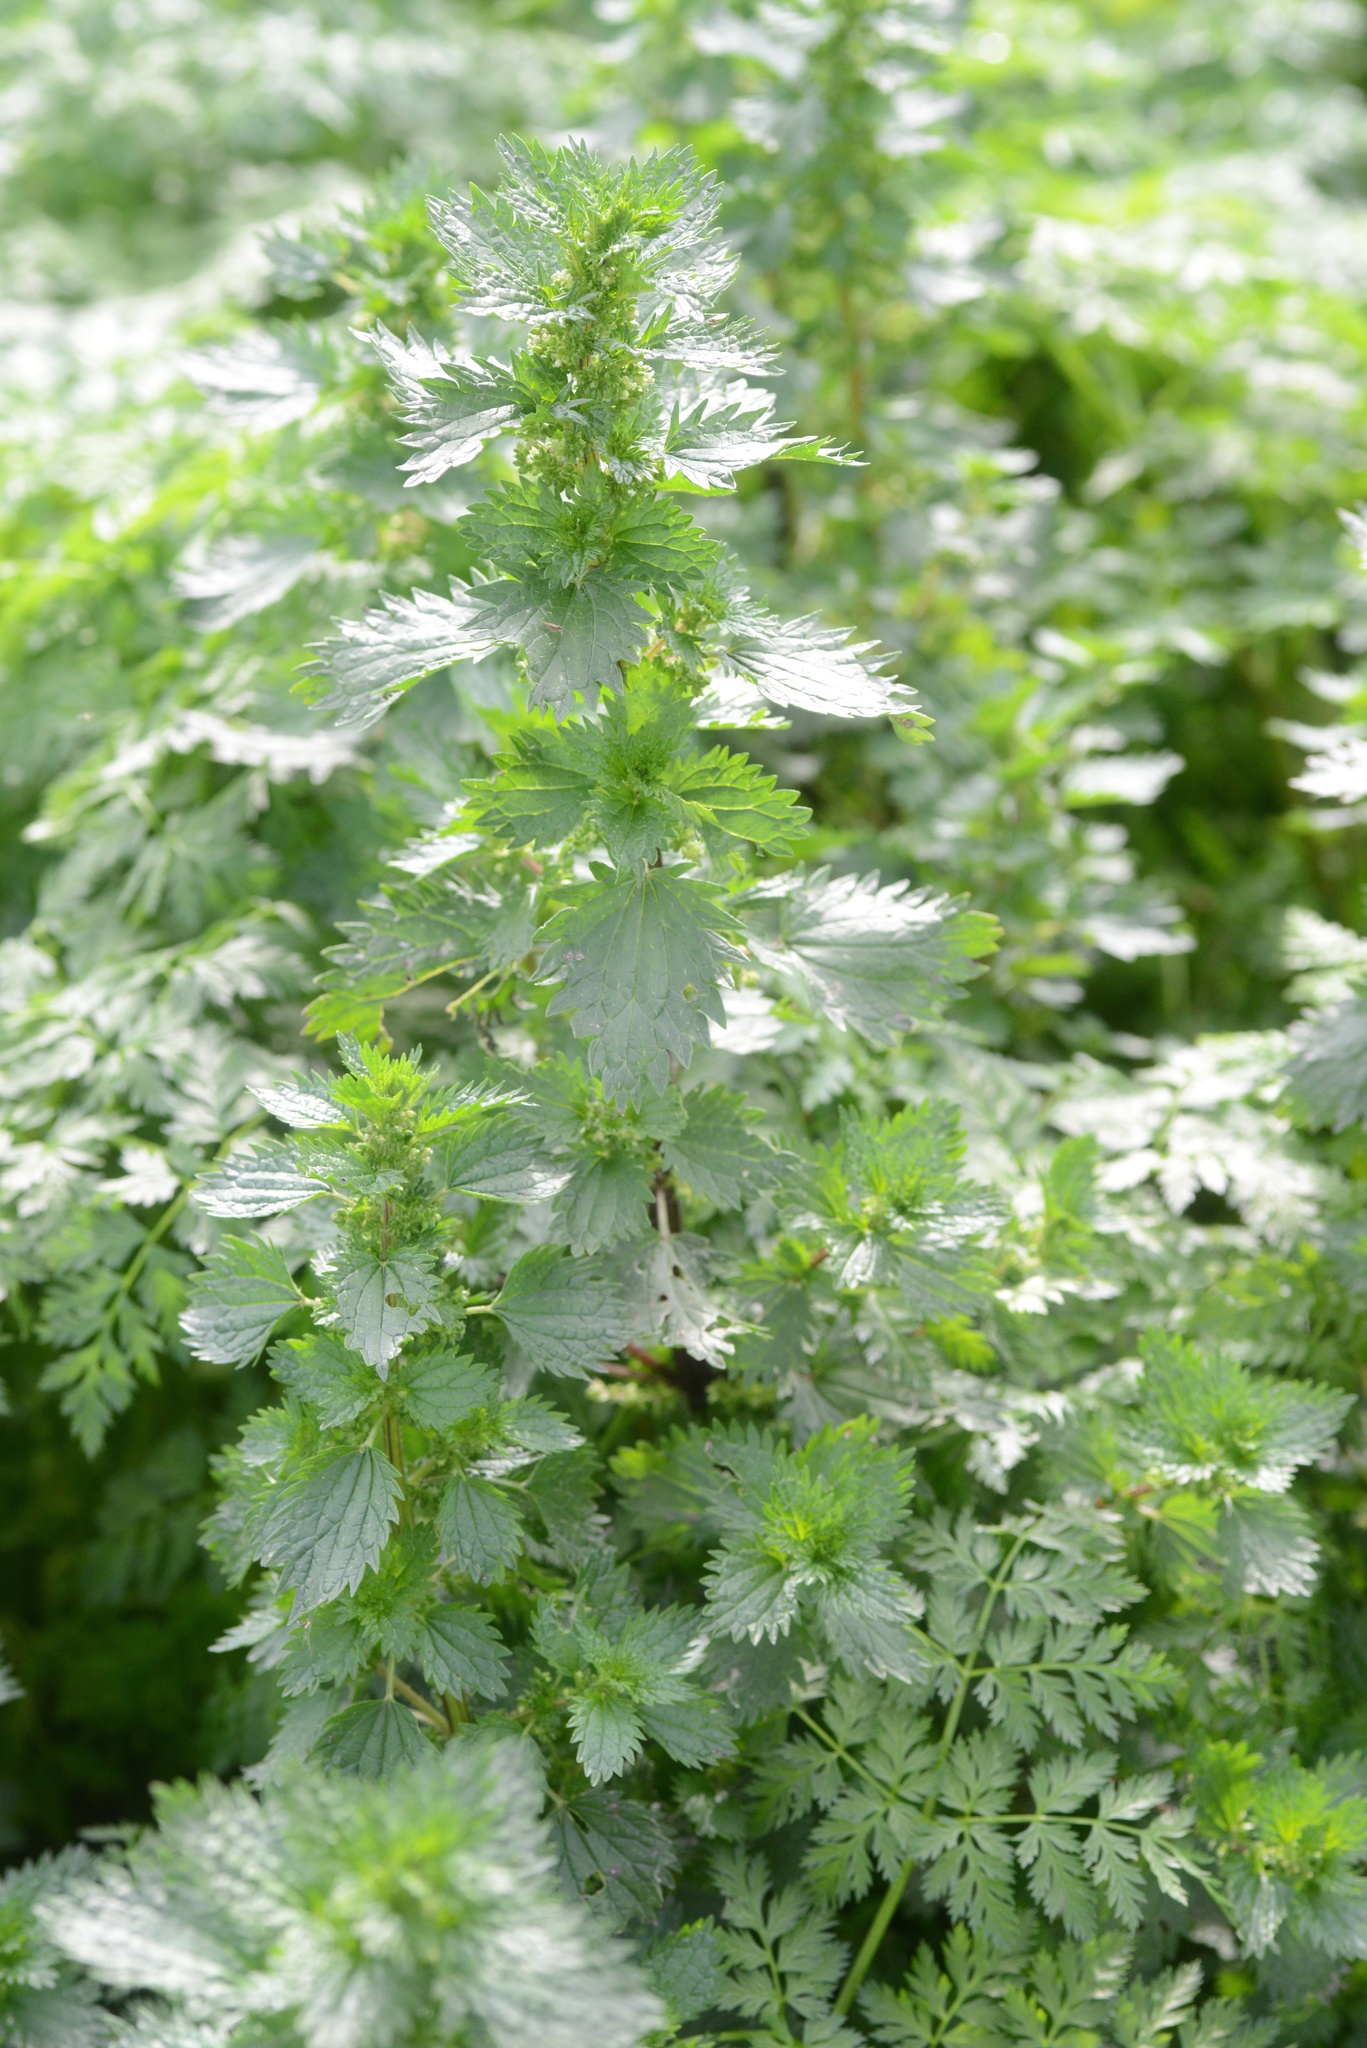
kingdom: Plantae
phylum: Tracheophyta
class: Magnoliopsida
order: Rosales
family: Urticaceae
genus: Urtica
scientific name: Urtica urens
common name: Dwarf nettle
